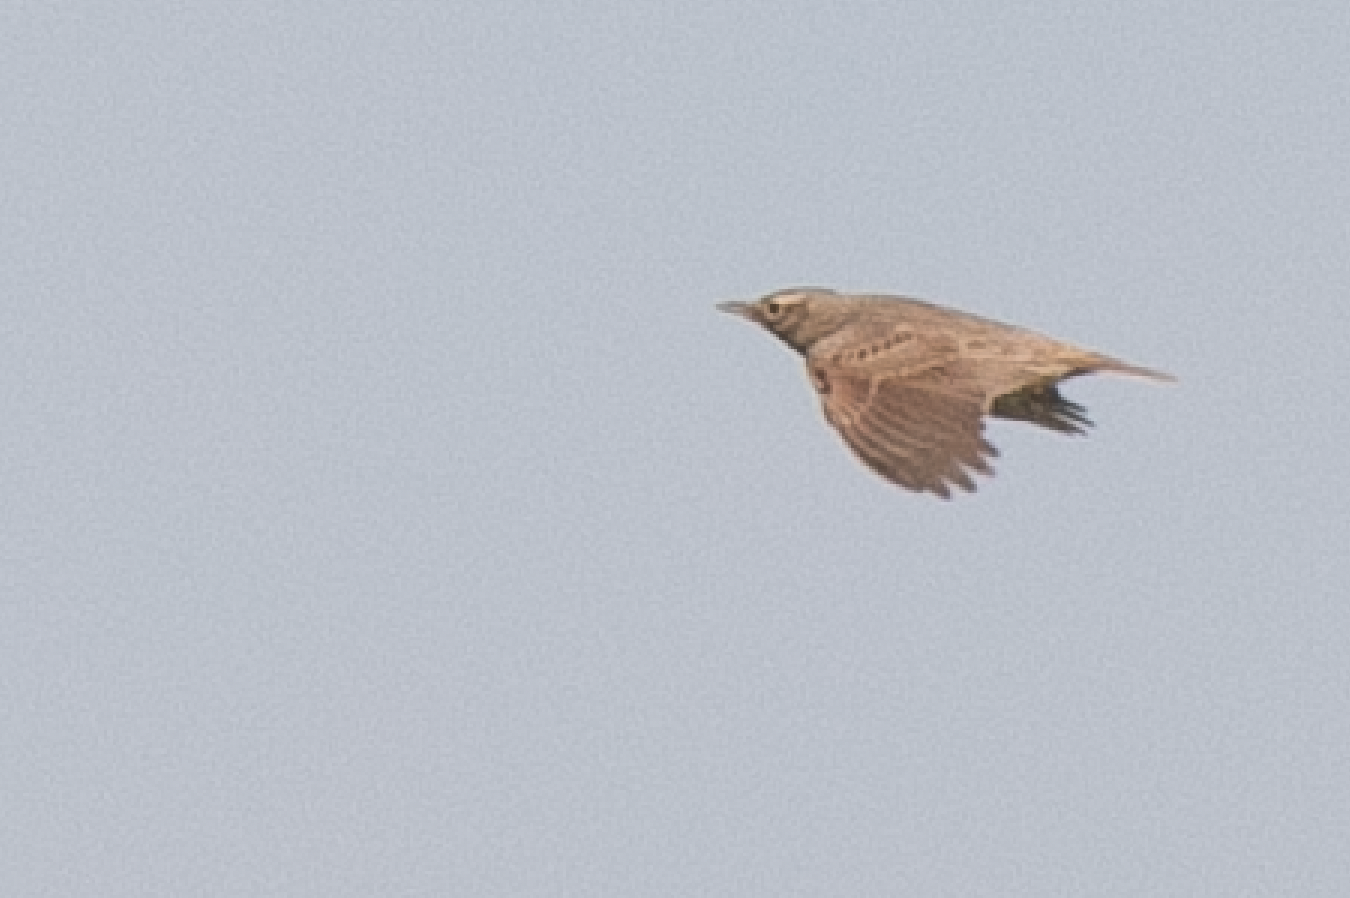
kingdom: Animalia
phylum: Chordata
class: Aves
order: Passeriformes
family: Alaudidae
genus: Galerida
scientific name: Galerida cristata
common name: Crested lark
